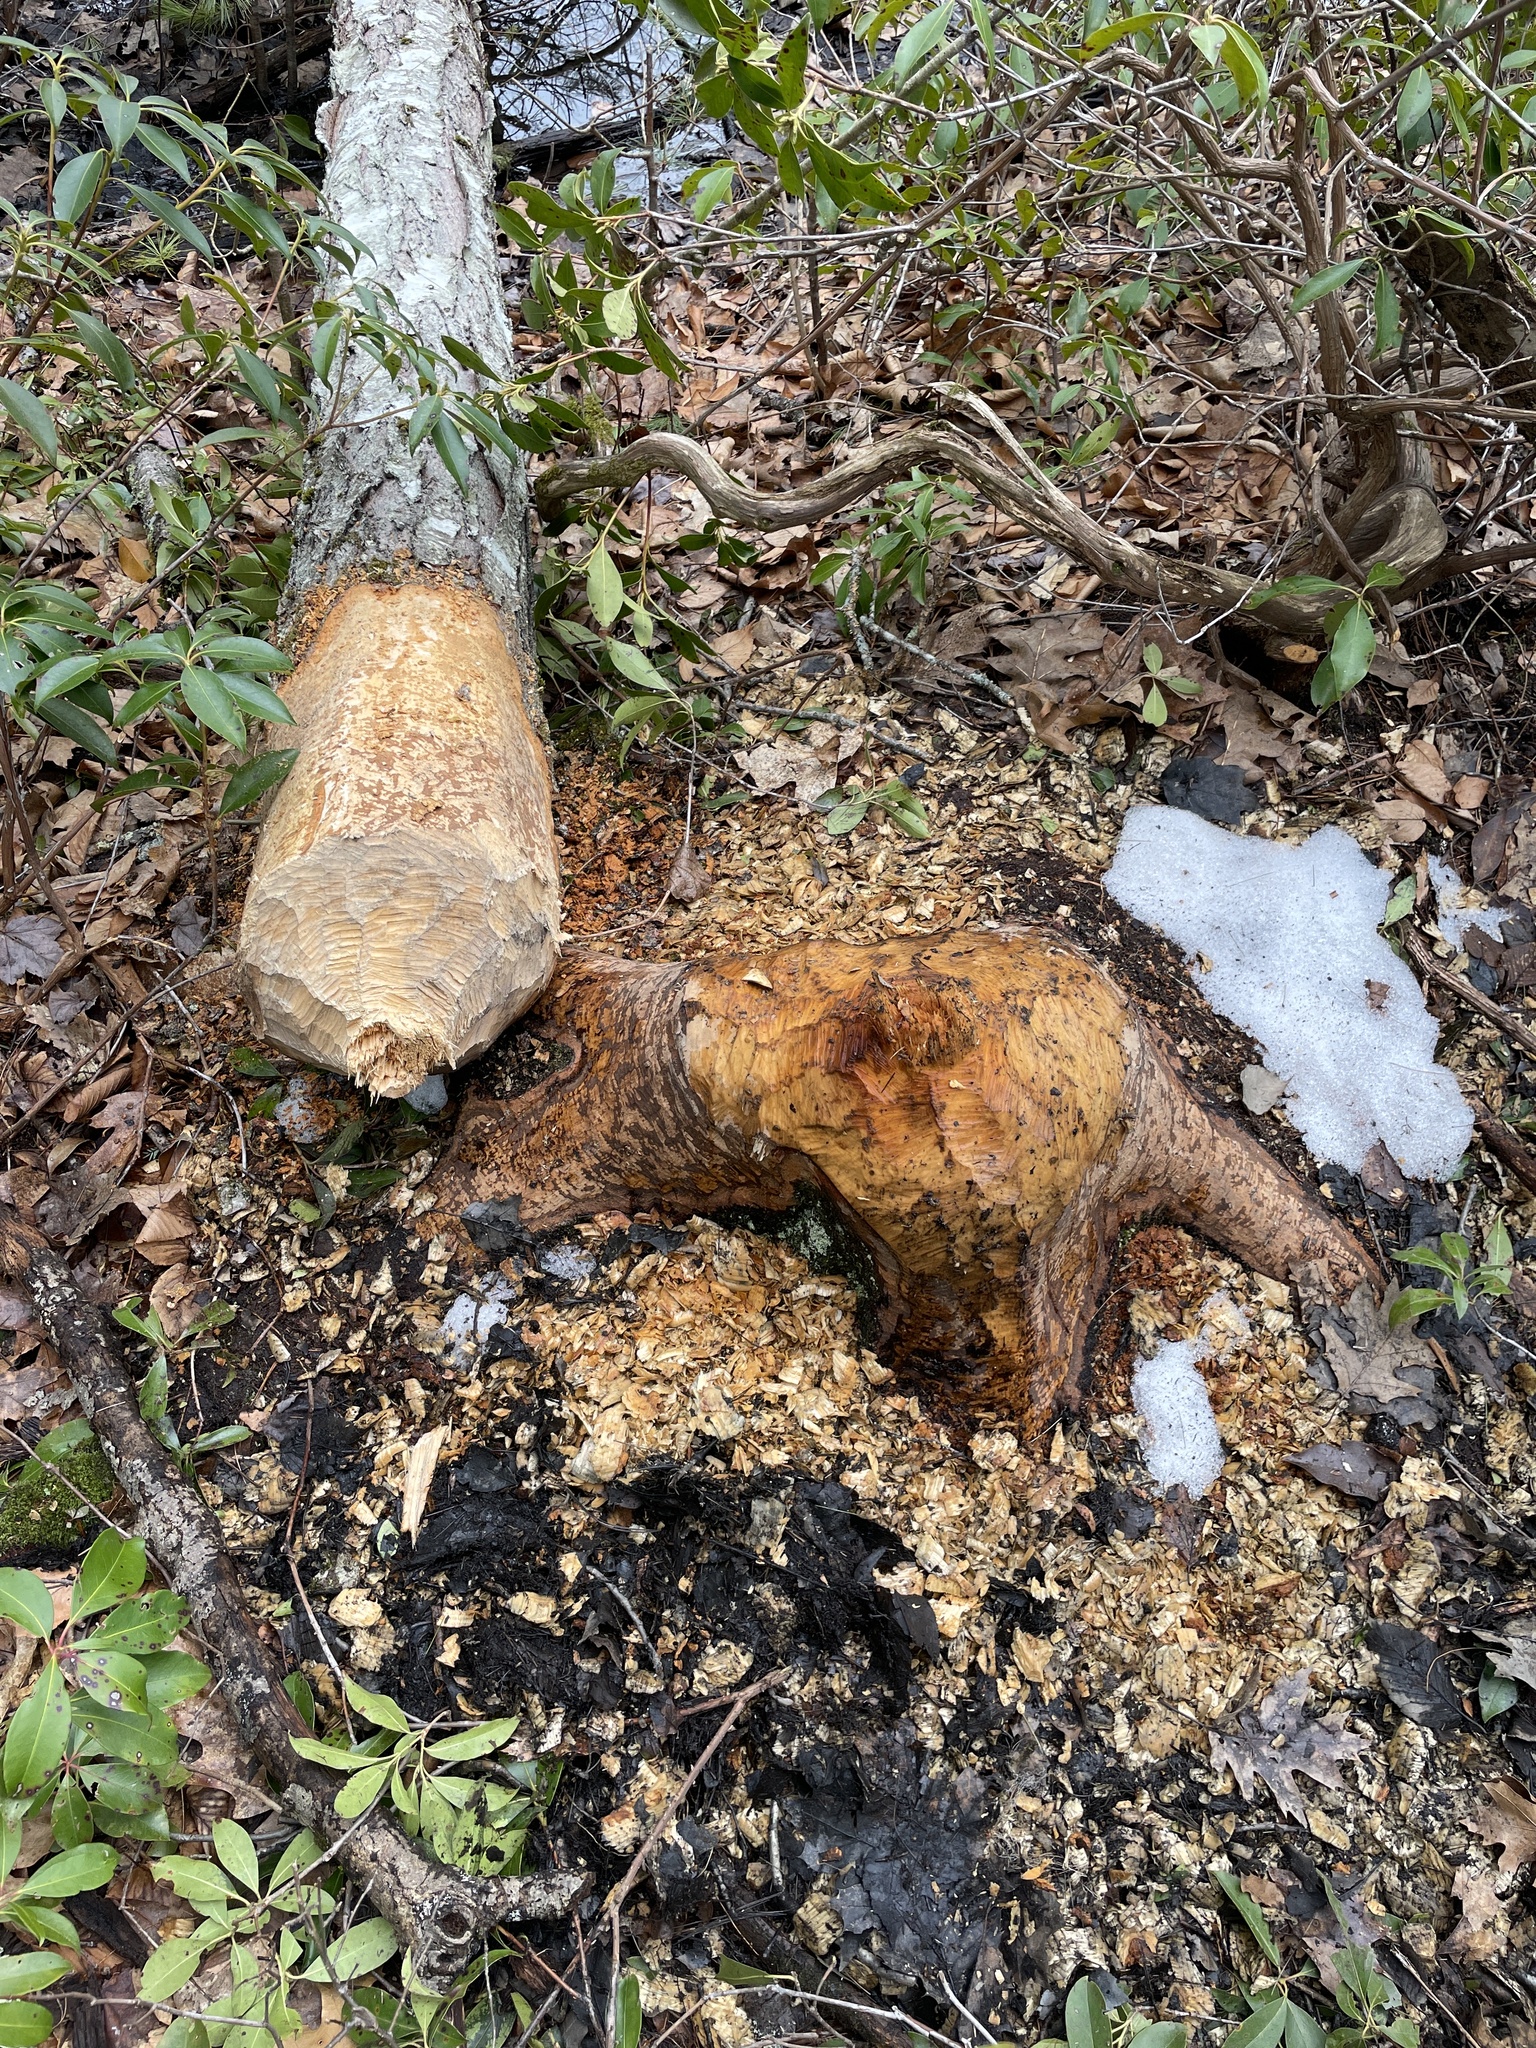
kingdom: Animalia
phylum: Chordata
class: Mammalia
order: Rodentia
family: Castoridae
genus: Castor
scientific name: Castor canadensis
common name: American beaver
